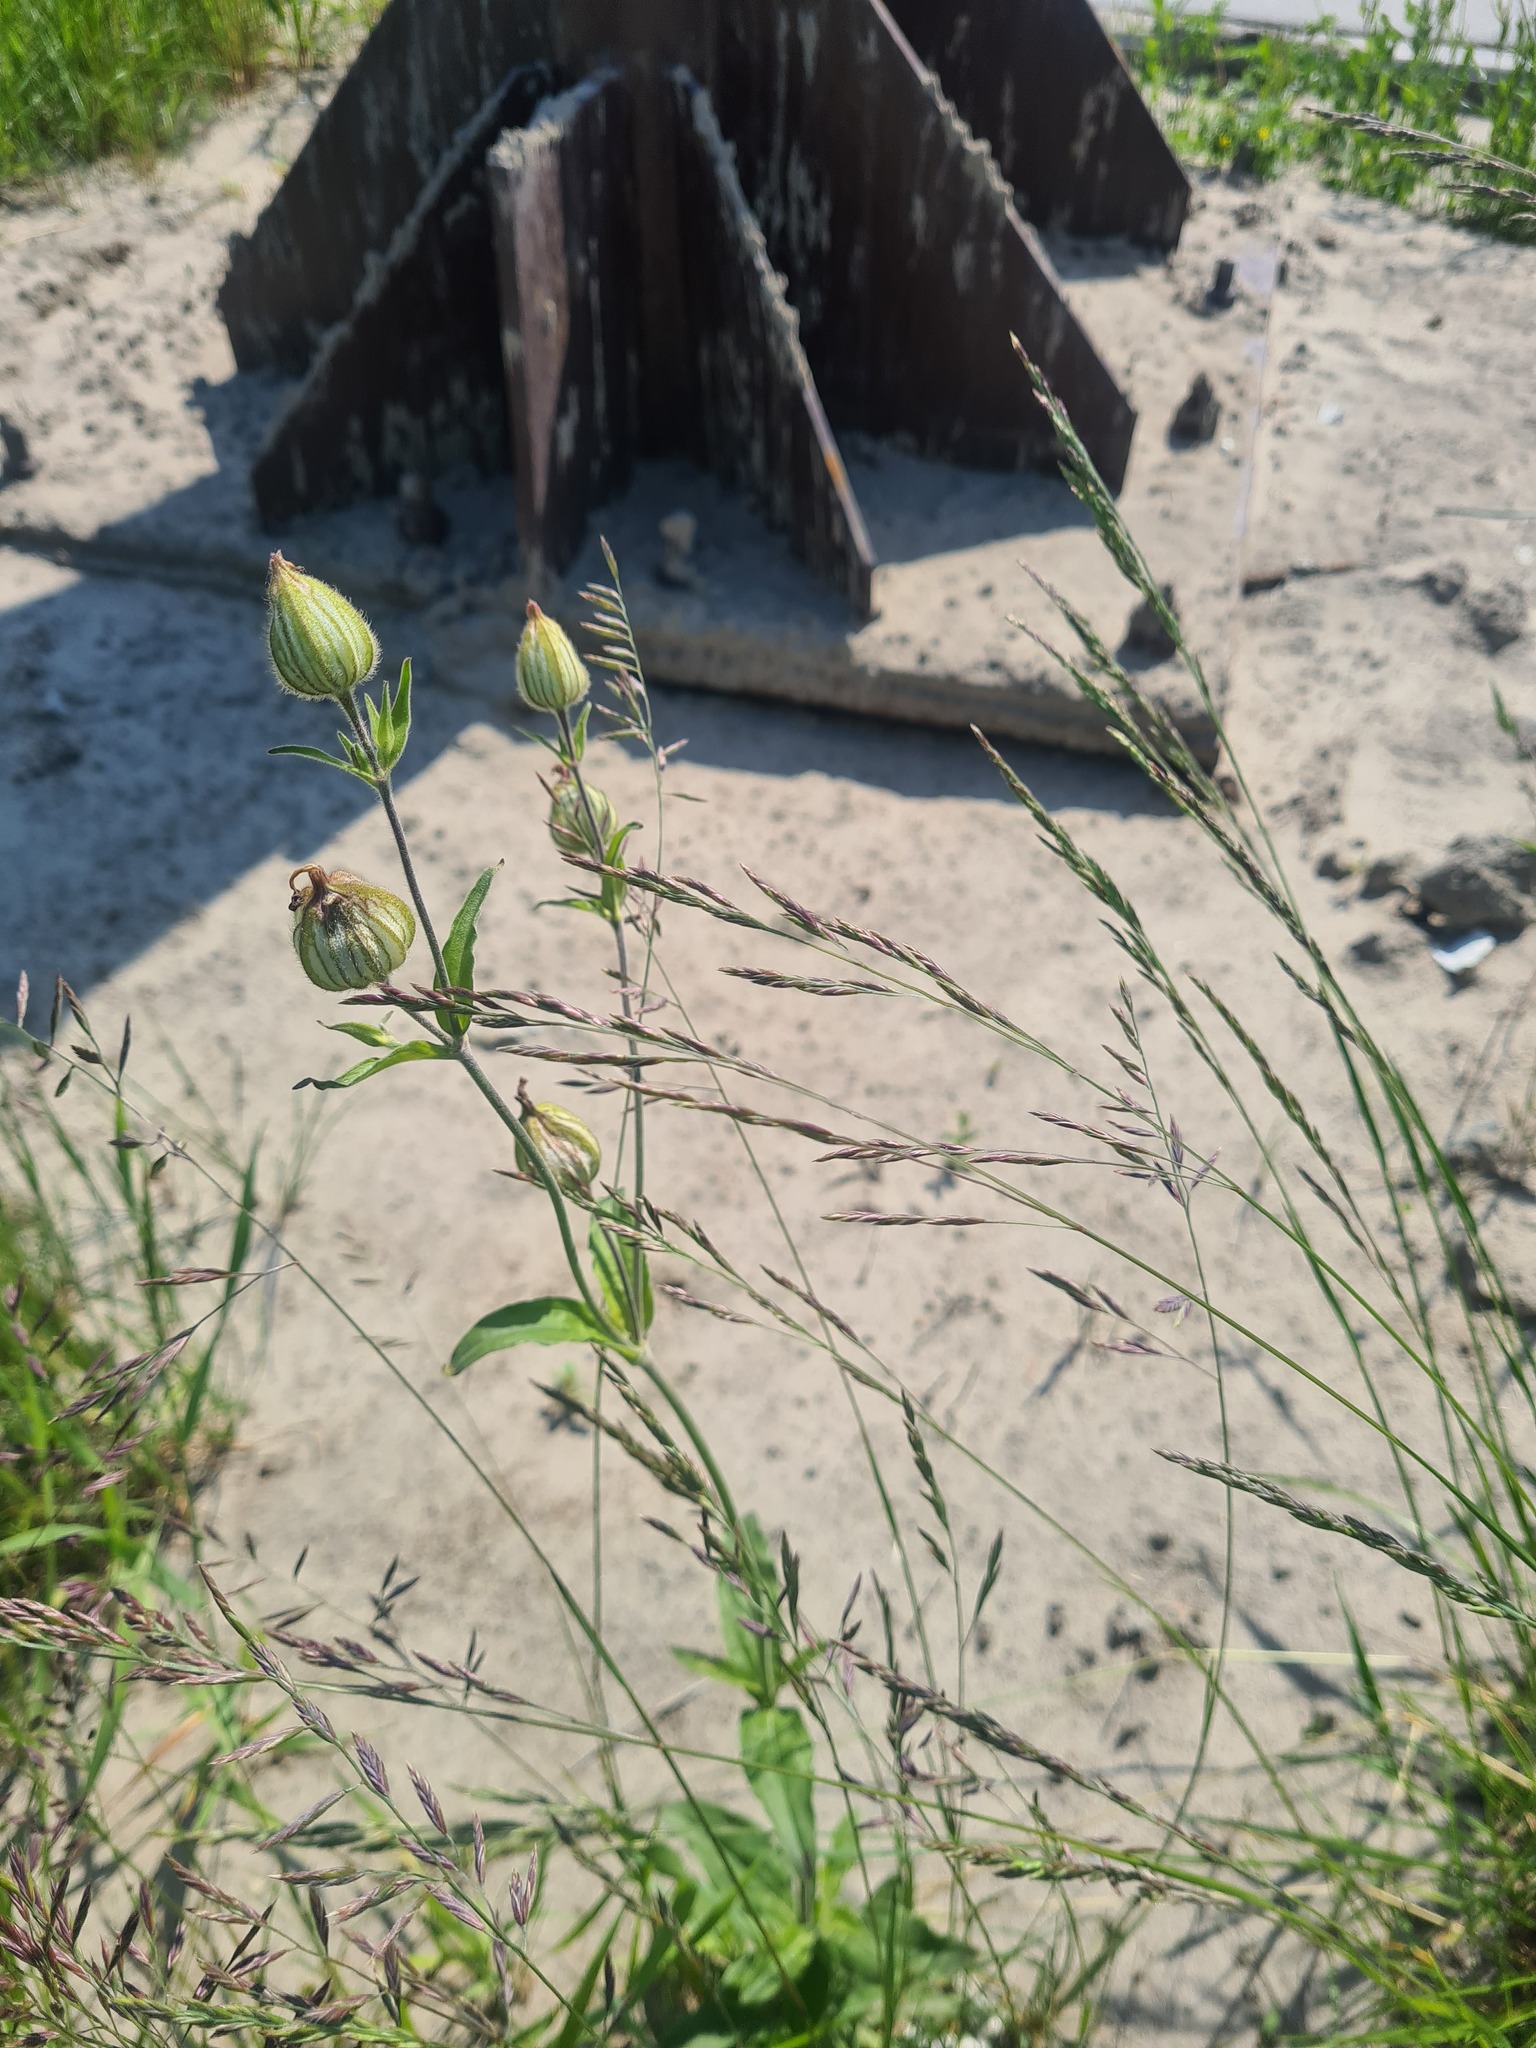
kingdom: Plantae
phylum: Tracheophyta
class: Magnoliopsida
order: Caryophyllales
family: Caryophyllaceae
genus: Silene
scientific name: Silene latifolia
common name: White campion
